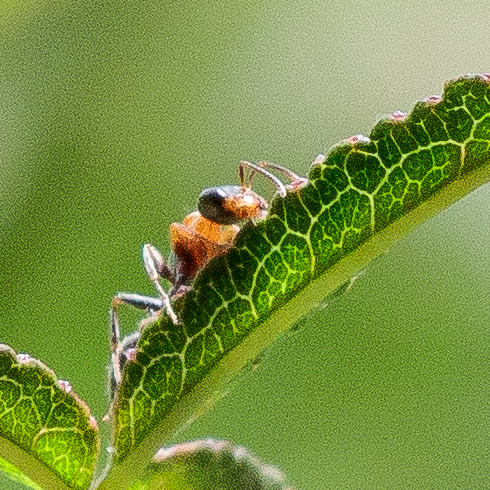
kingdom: Animalia
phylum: Arthropoda
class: Insecta
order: Hymenoptera
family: Formicidae
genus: Pseudomyrmex
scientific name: Pseudomyrmex gracilis
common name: Graceful twig ant
